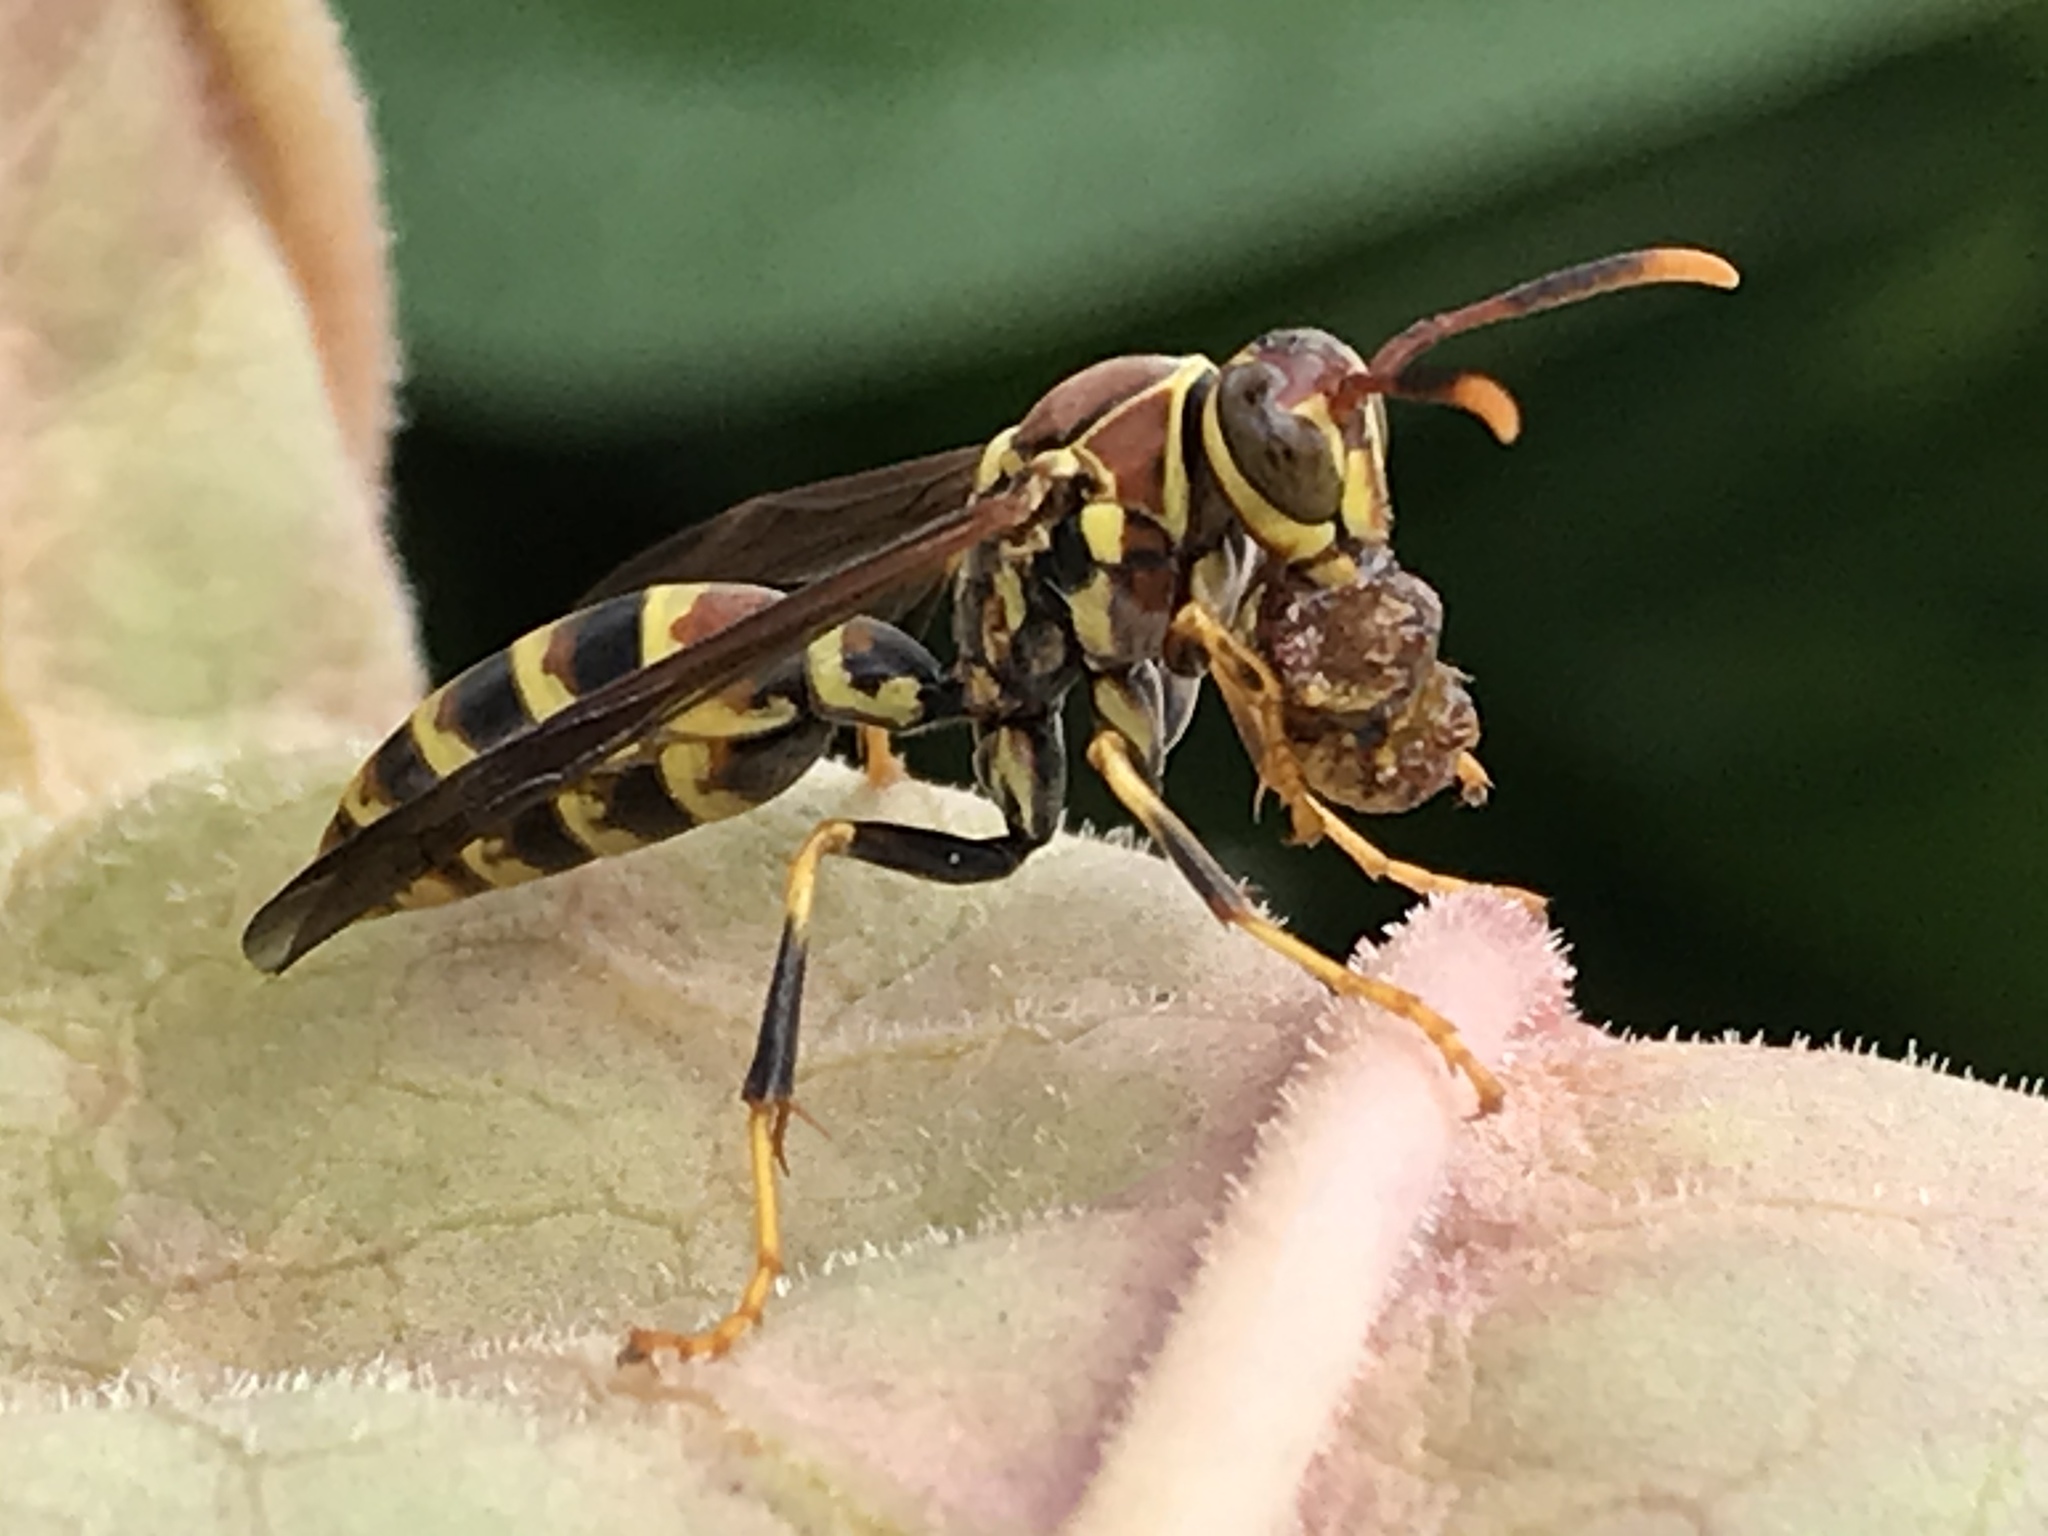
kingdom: Animalia
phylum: Arthropoda
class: Insecta
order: Hymenoptera
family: Eumenidae
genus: Polistes
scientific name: Polistes exclamans
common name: Paper wasp
